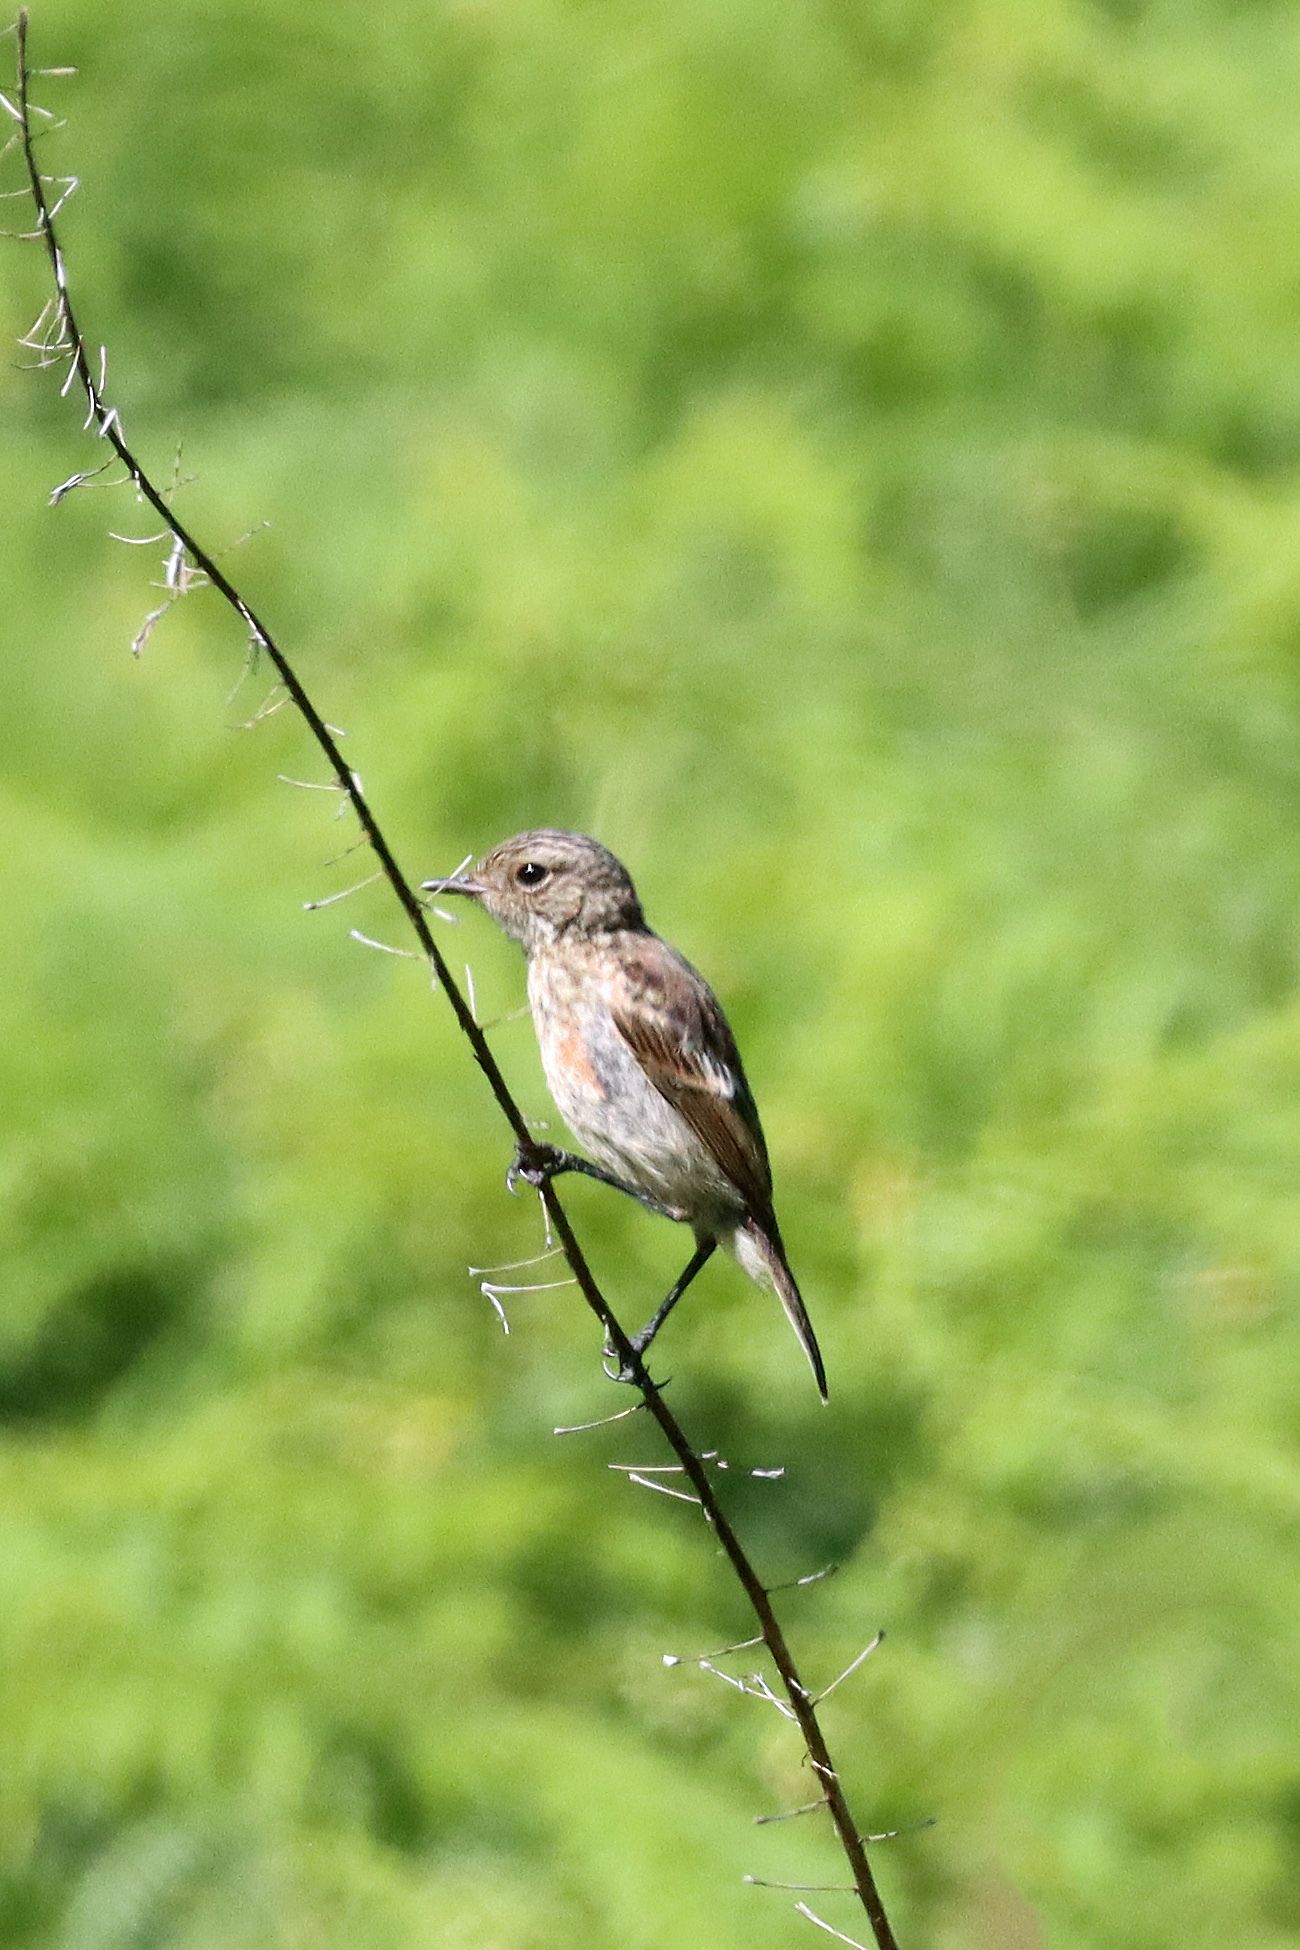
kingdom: Animalia
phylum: Chordata
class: Aves
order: Passeriformes
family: Muscicapidae
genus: Saxicola
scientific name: Saxicola rubicola
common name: European stonechat
